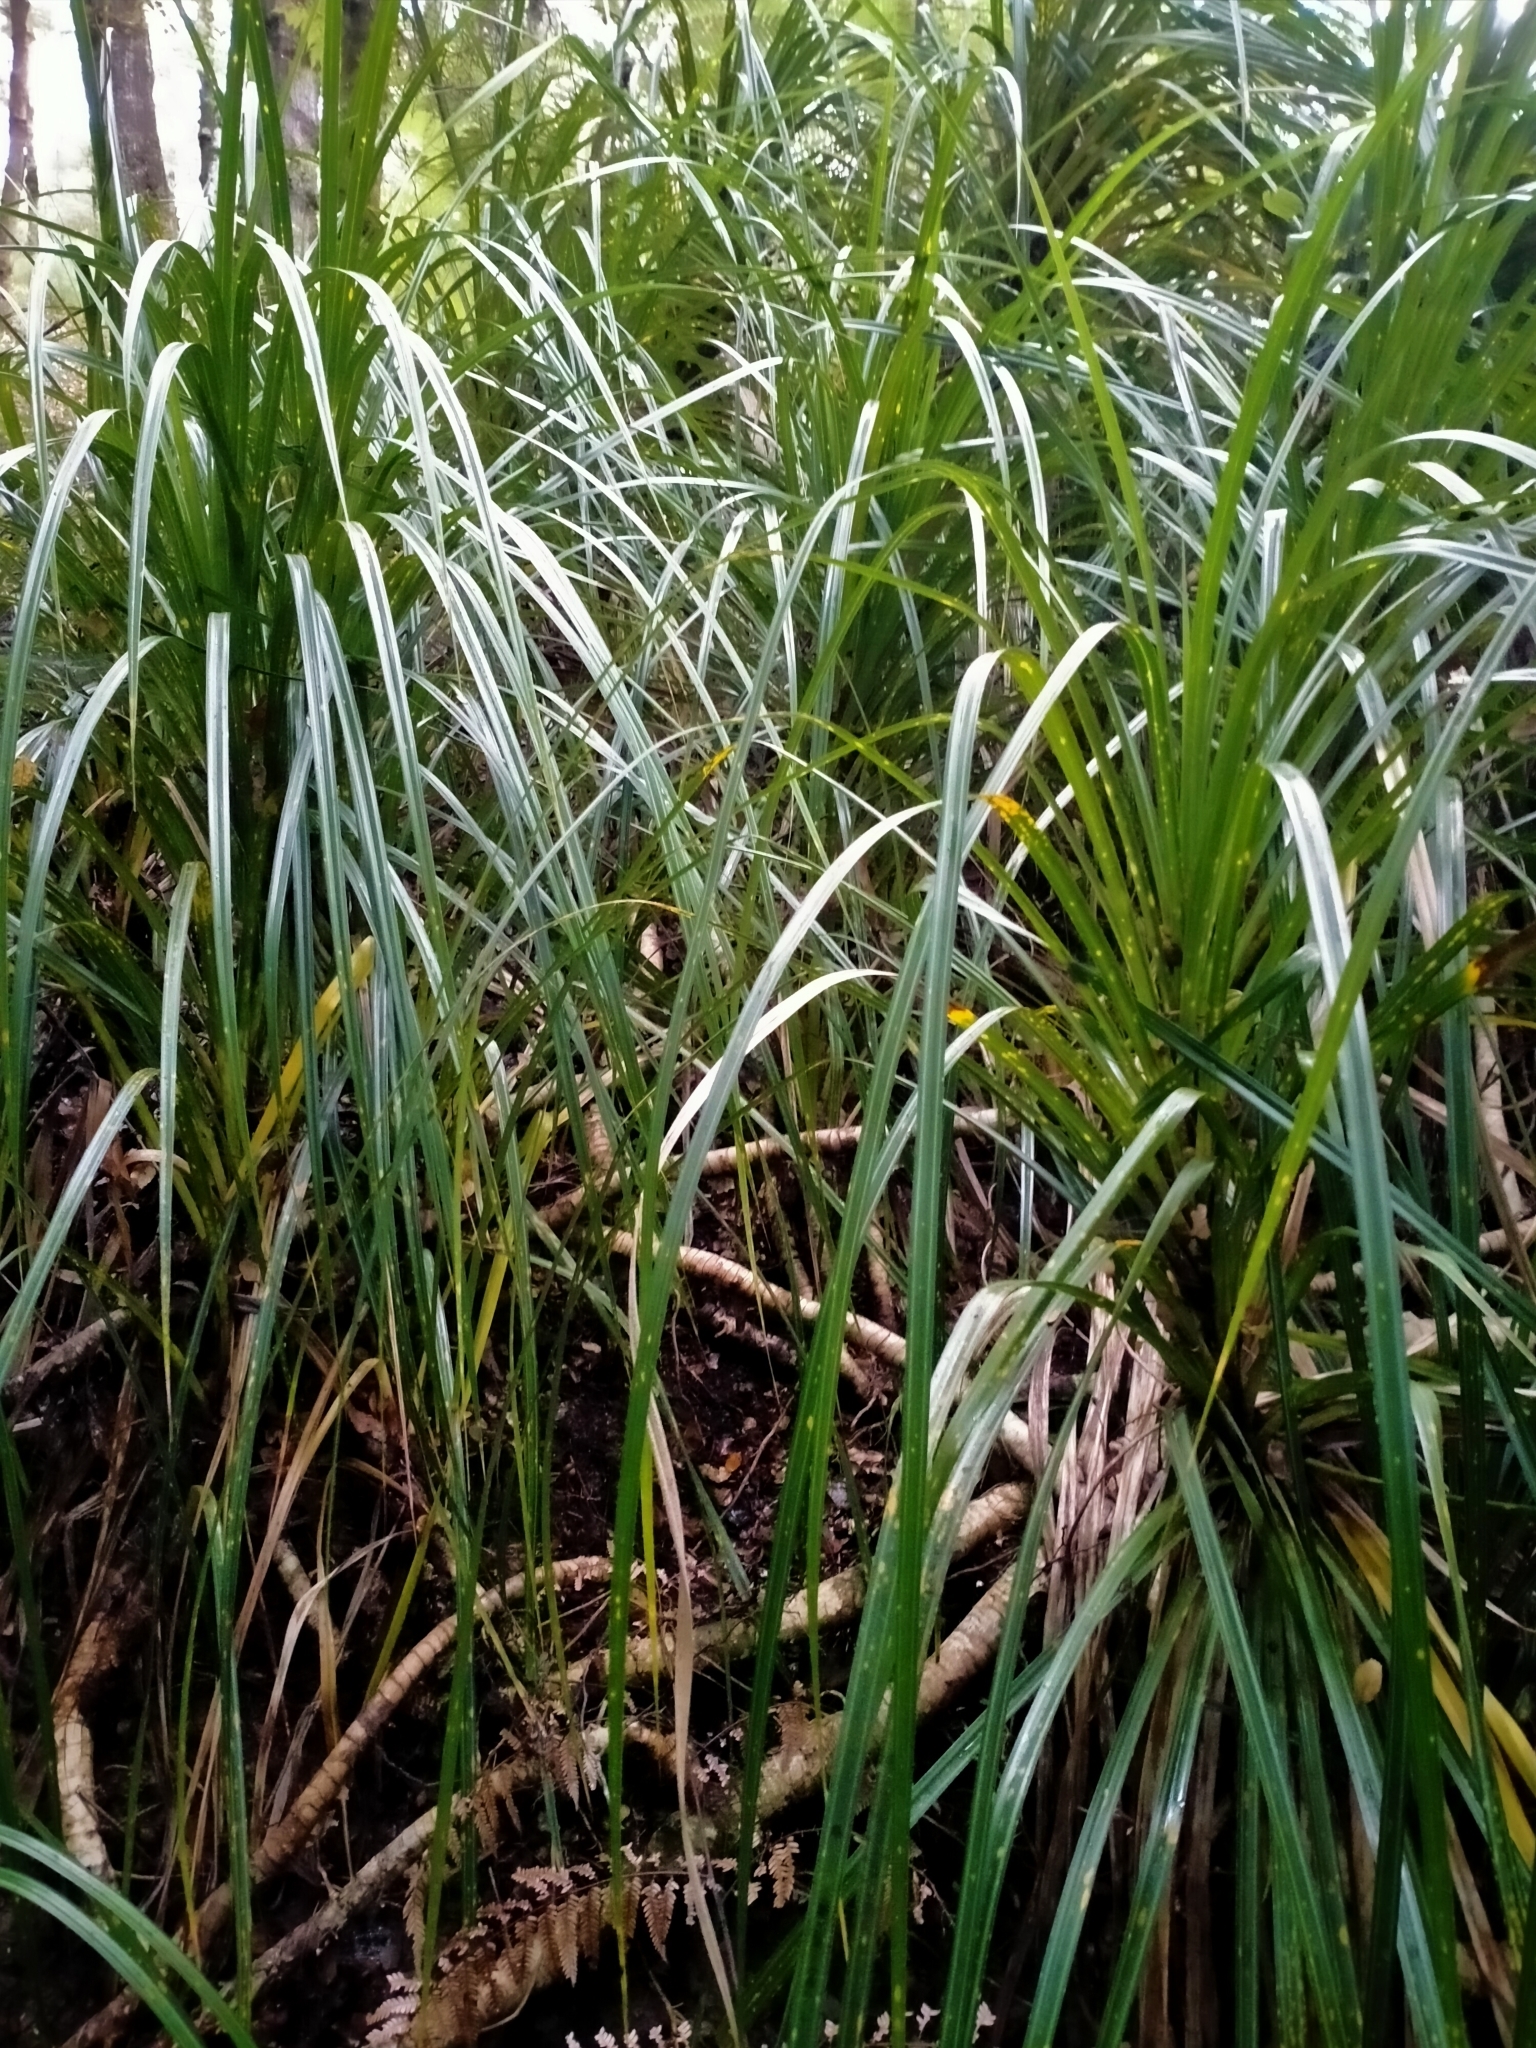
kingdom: Plantae
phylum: Tracheophyta
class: Liliopsida
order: Pandanales
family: Pandanaceae
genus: Freycinetia
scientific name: Freycinetia banksii
